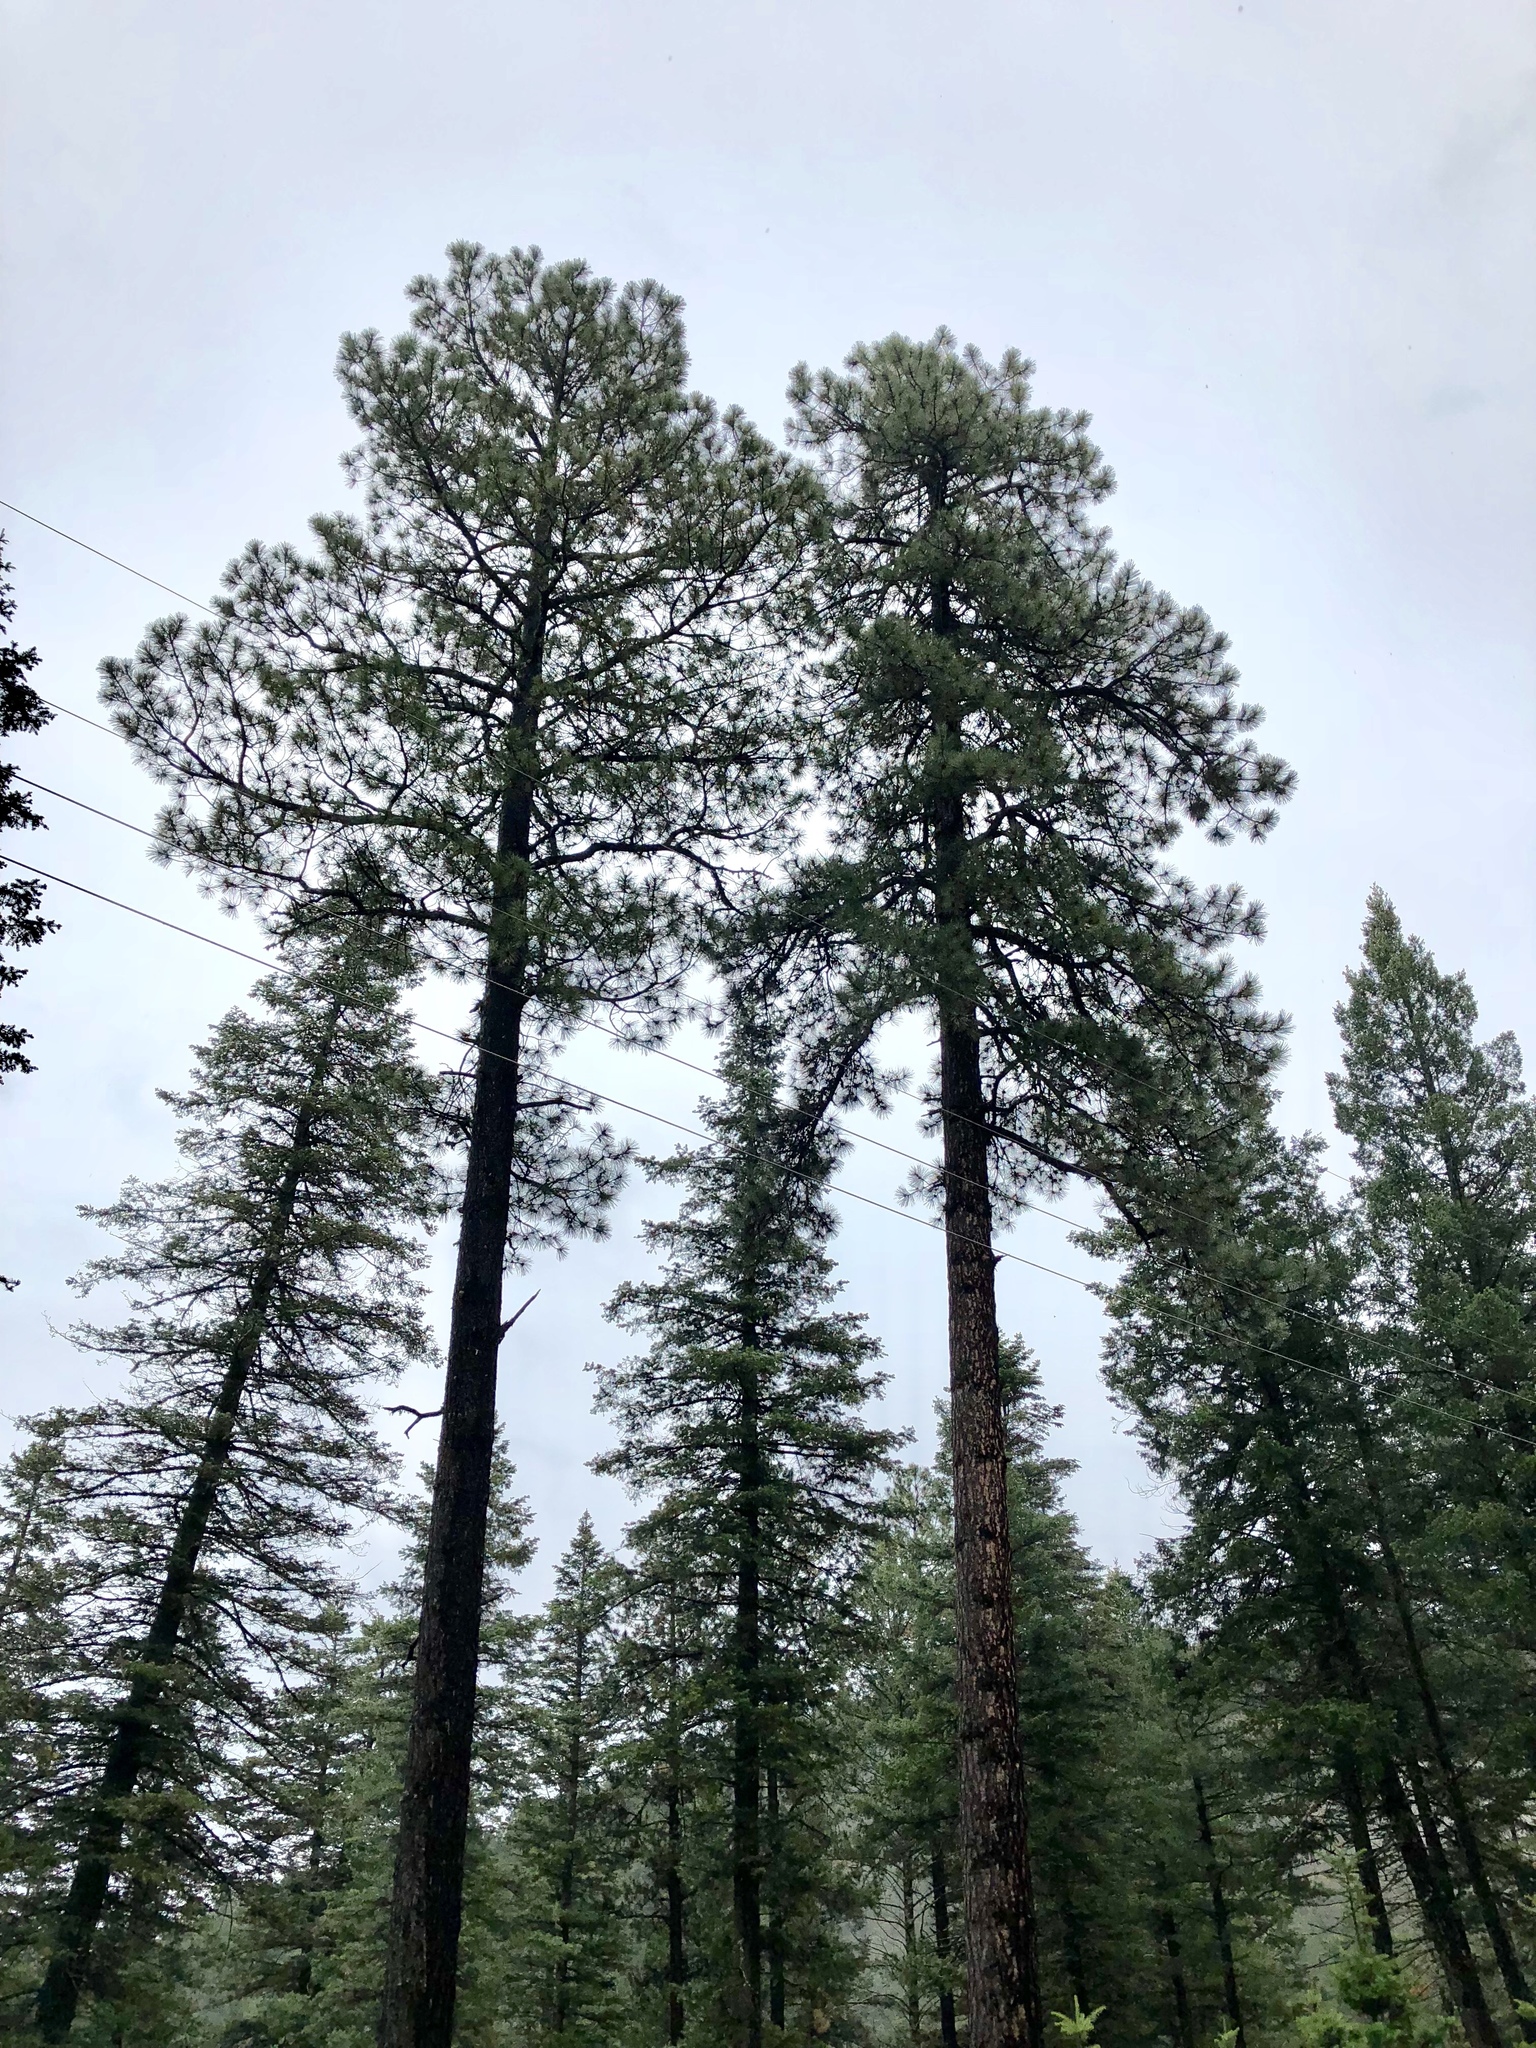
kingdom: Plantae
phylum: Tracheophyta
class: Pinopsida
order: Pinales
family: Pinaceae
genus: Pinus
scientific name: Pinus ponderosa
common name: Western yellow-pine
